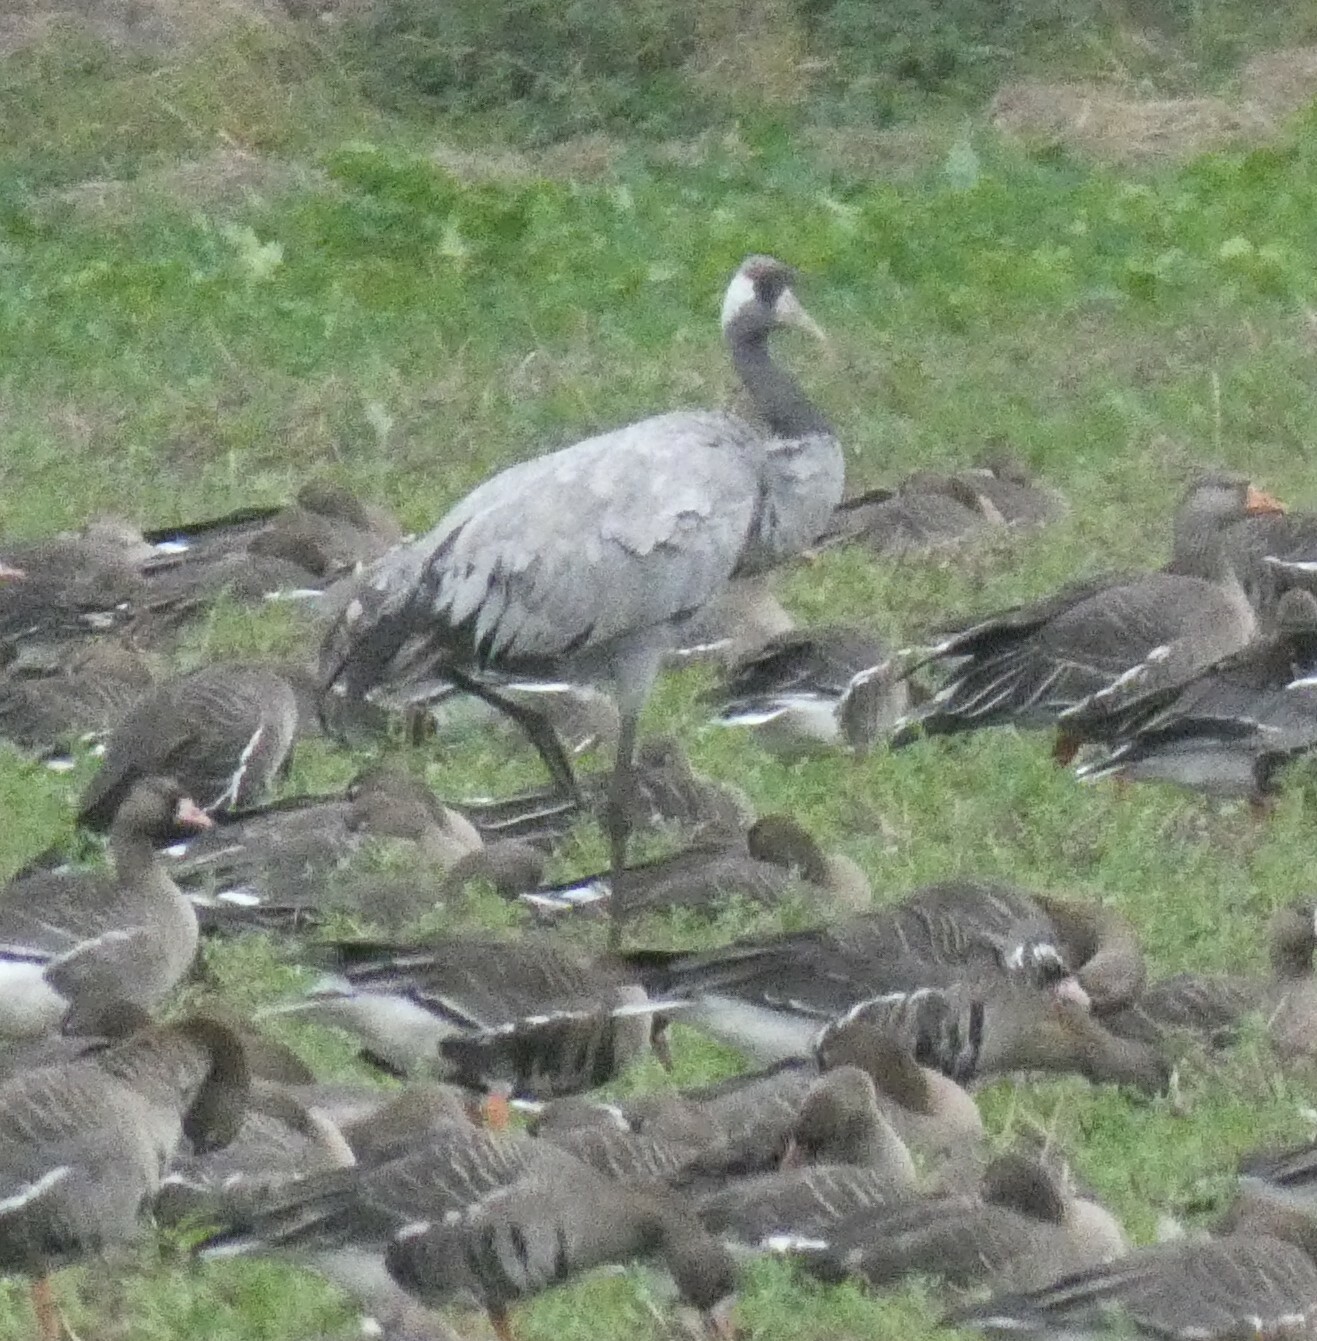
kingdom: Animalia
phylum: Chordata
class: Aves
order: Gruiformes
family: Gruidae
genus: Grus
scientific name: Grus grus
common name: Common crane
